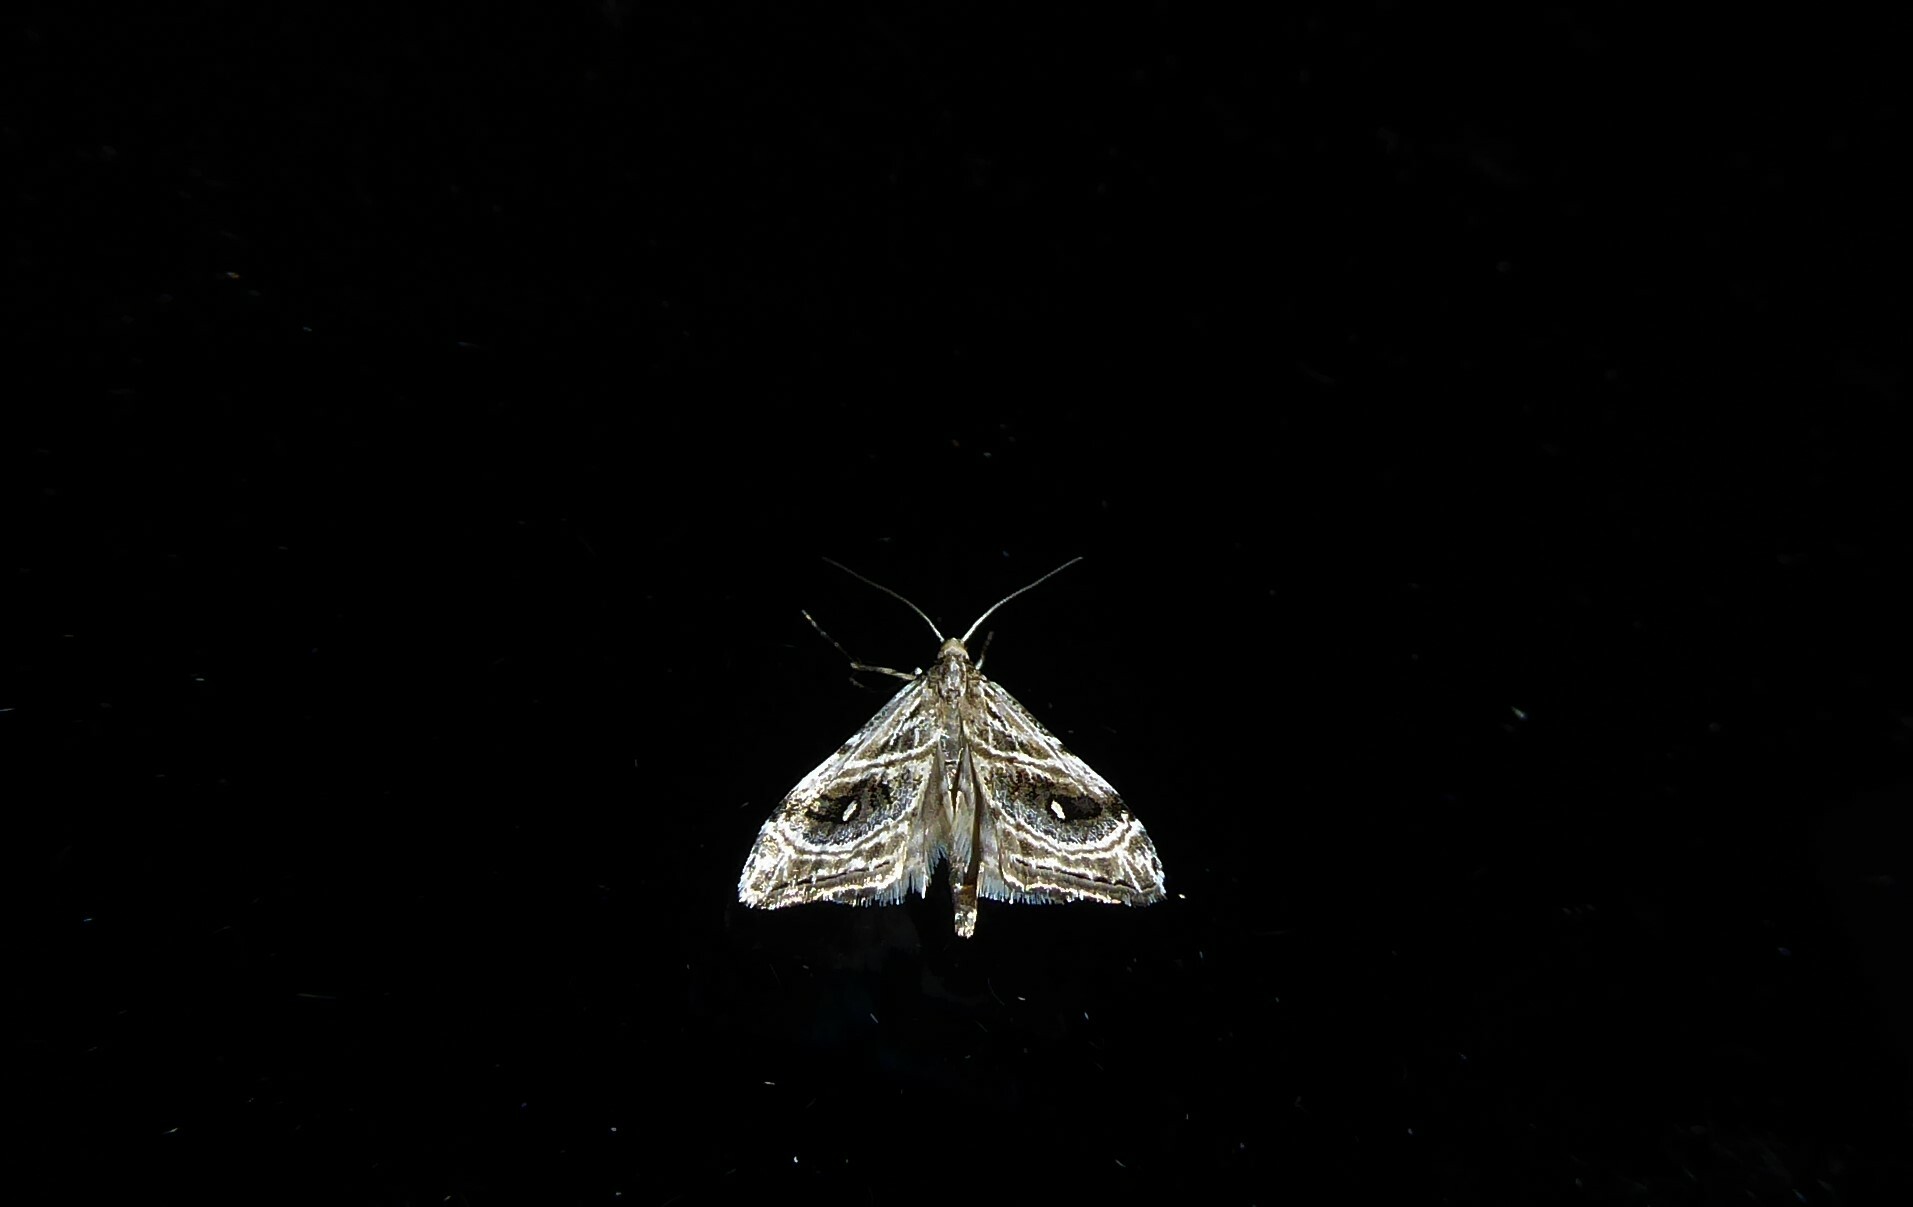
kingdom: Animalia
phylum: Arthropoda
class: Insecta
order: Lepidoptera
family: Crambidae
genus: Gadira
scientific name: Gadira acerella
